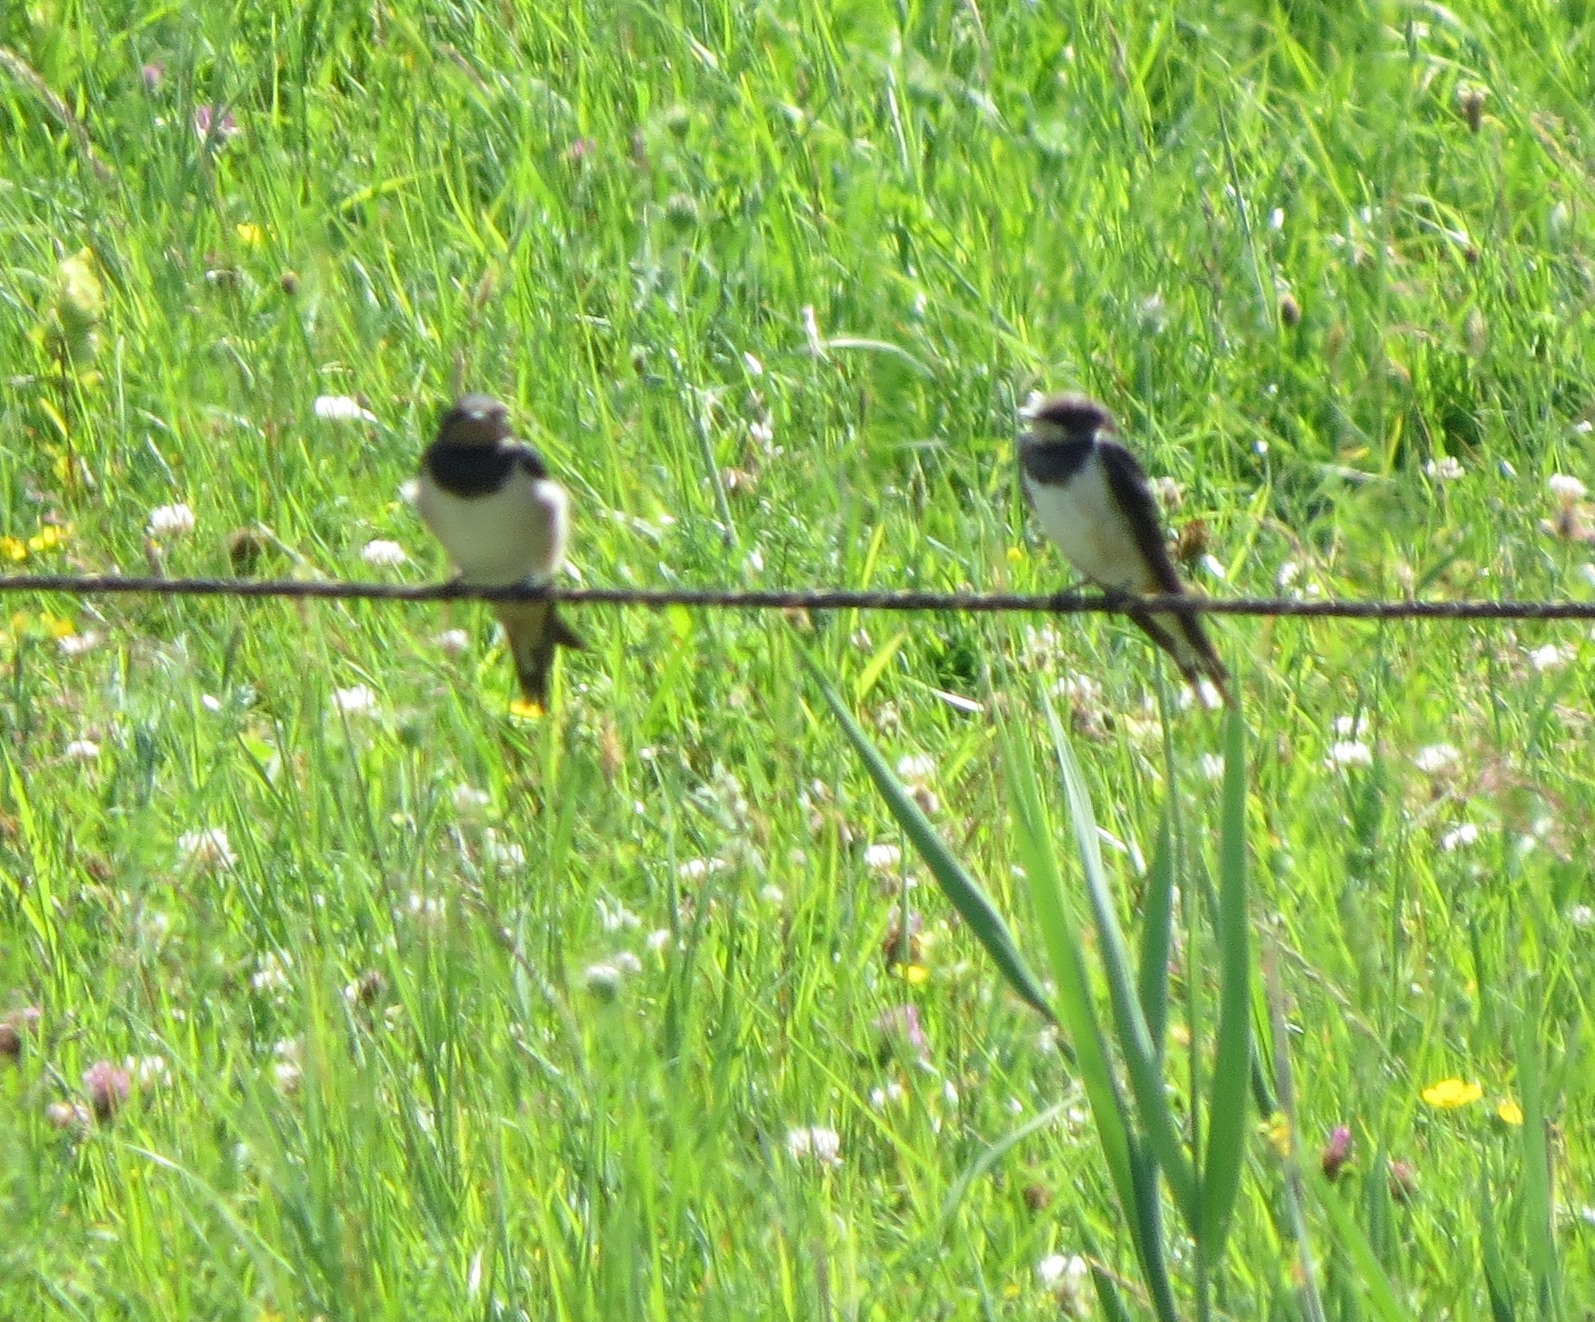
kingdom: Animalia
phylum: Chordata
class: Aves
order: Passeriformes
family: Hirundinidae
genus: Hirundo
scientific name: Hirundo rustica
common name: Barn swallow
